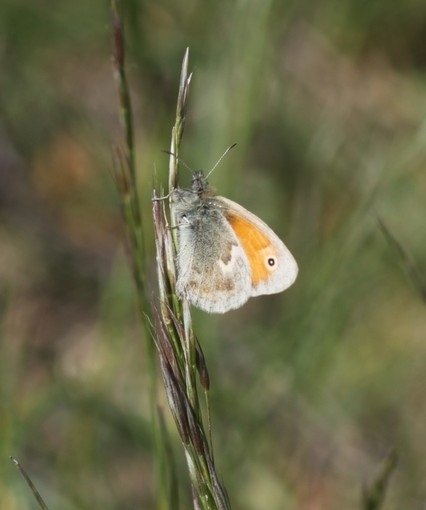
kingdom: Animalia
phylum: Arthropoda
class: Insecta
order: Lepidoptera
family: Nymphalidae
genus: Coenonympha
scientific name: Coenonympha pamphilus
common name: Small heath
